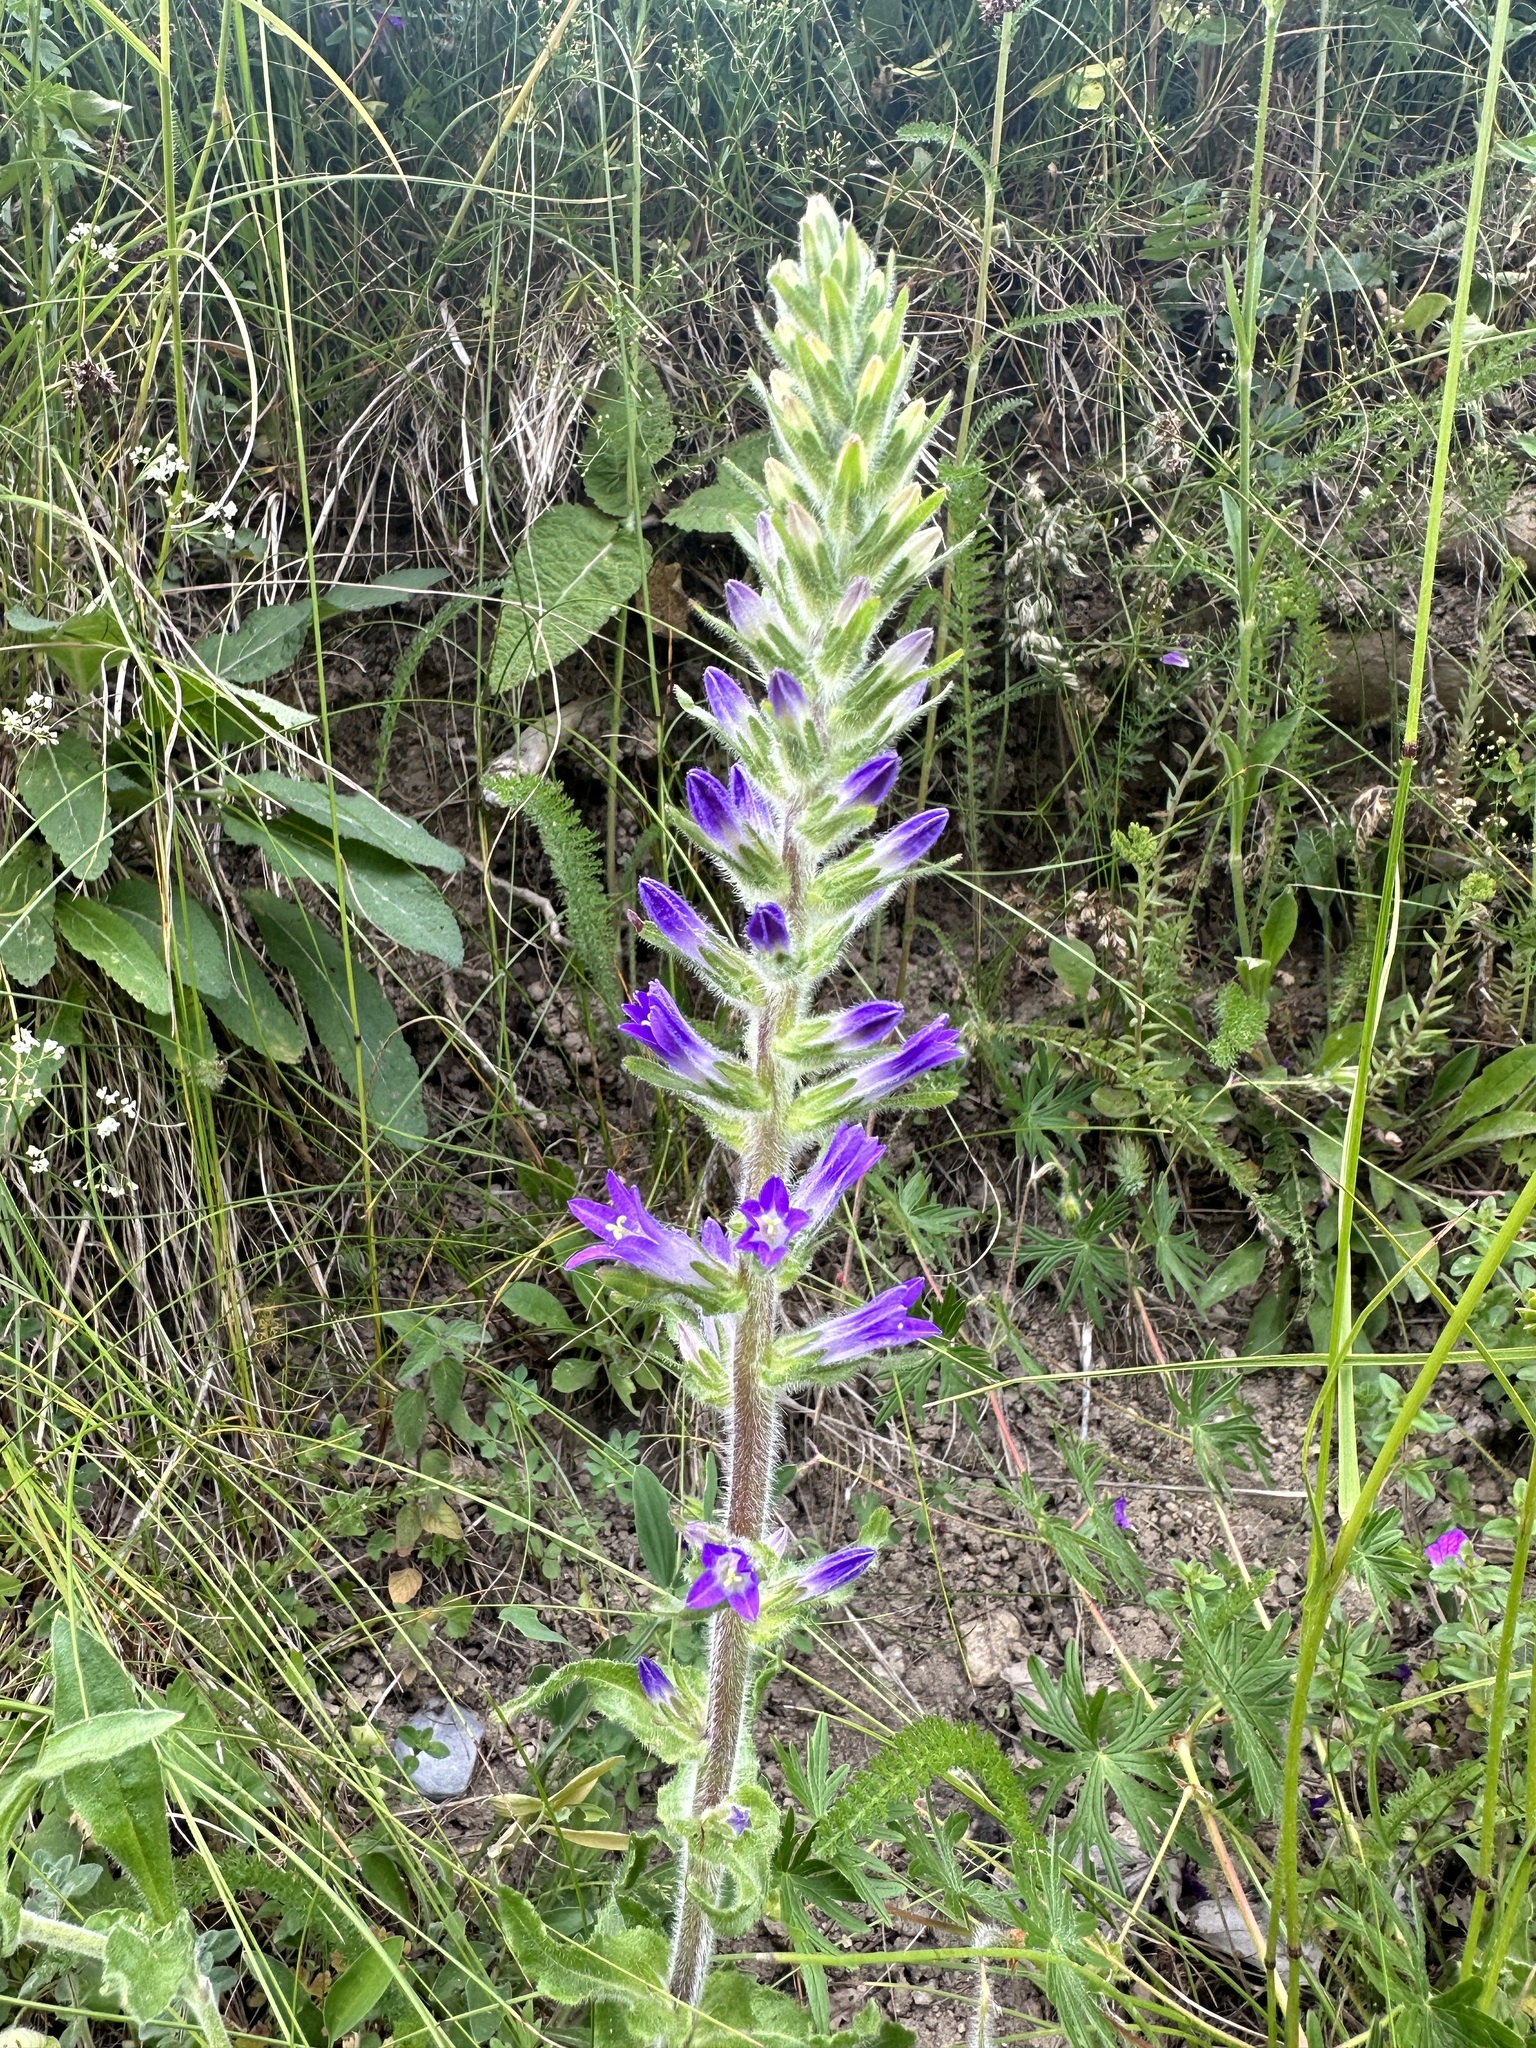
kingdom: Plantae
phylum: Tracheophyta
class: Magnoliopsida
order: Asterales
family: Campanulaceae
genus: Campanula
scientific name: Campanula spicata
